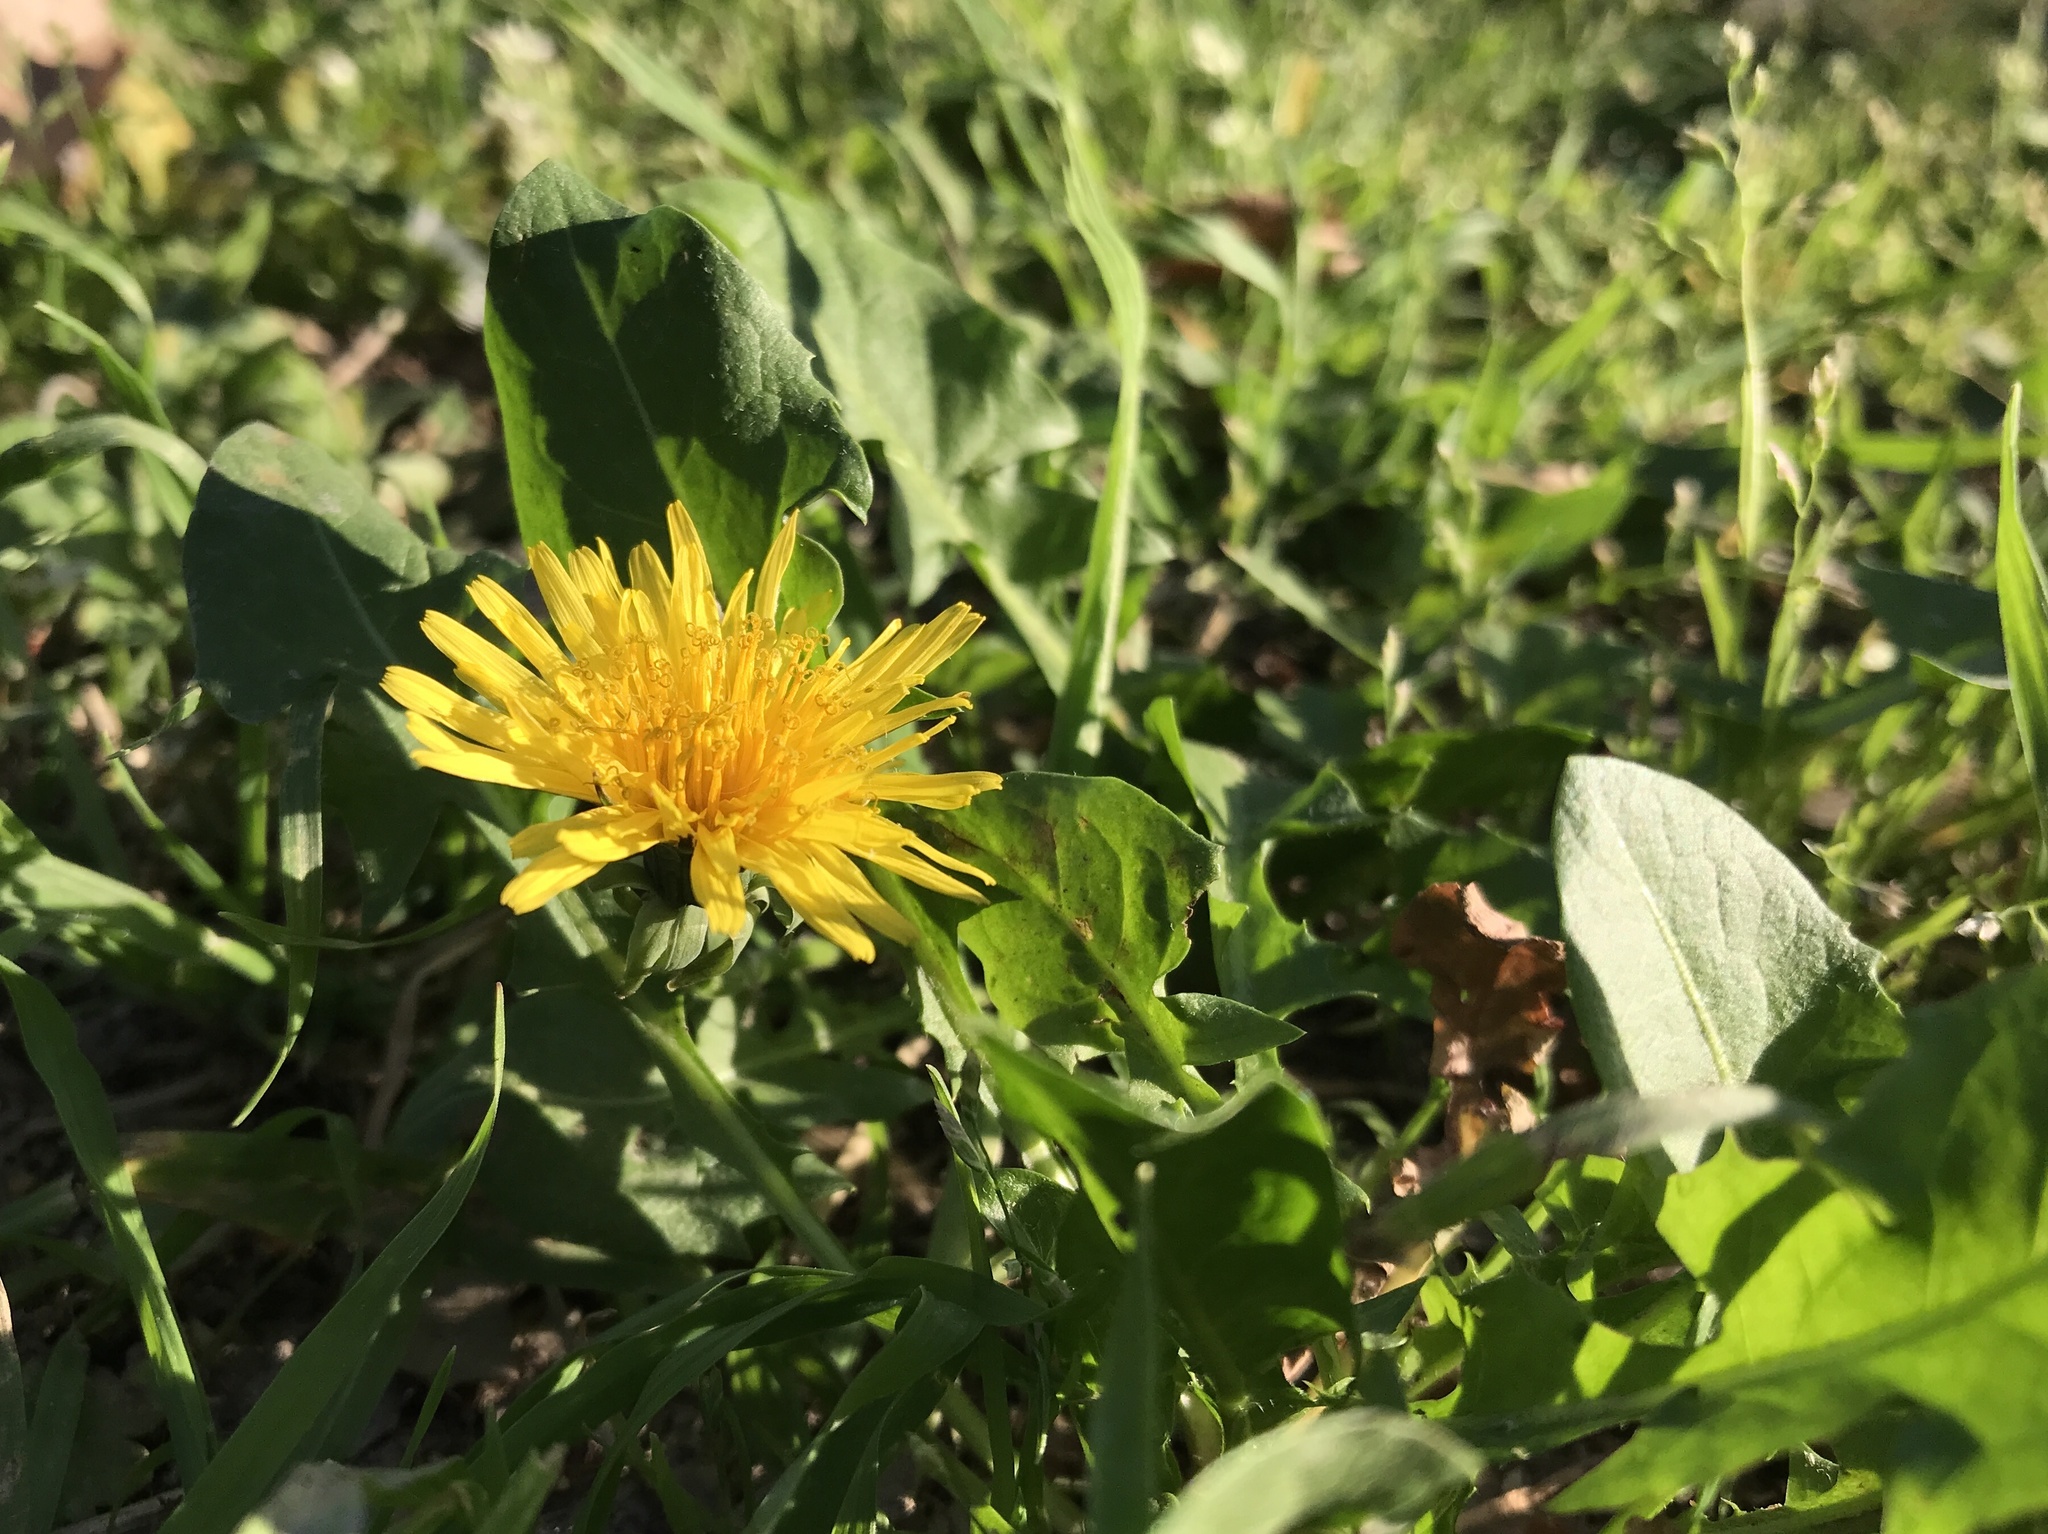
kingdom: Plantae
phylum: Tracheophyta
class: Magnoliopsida
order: Asterales
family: Asteraceae
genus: Taraxacum
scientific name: Taraxacum officinale
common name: Common dandelion
